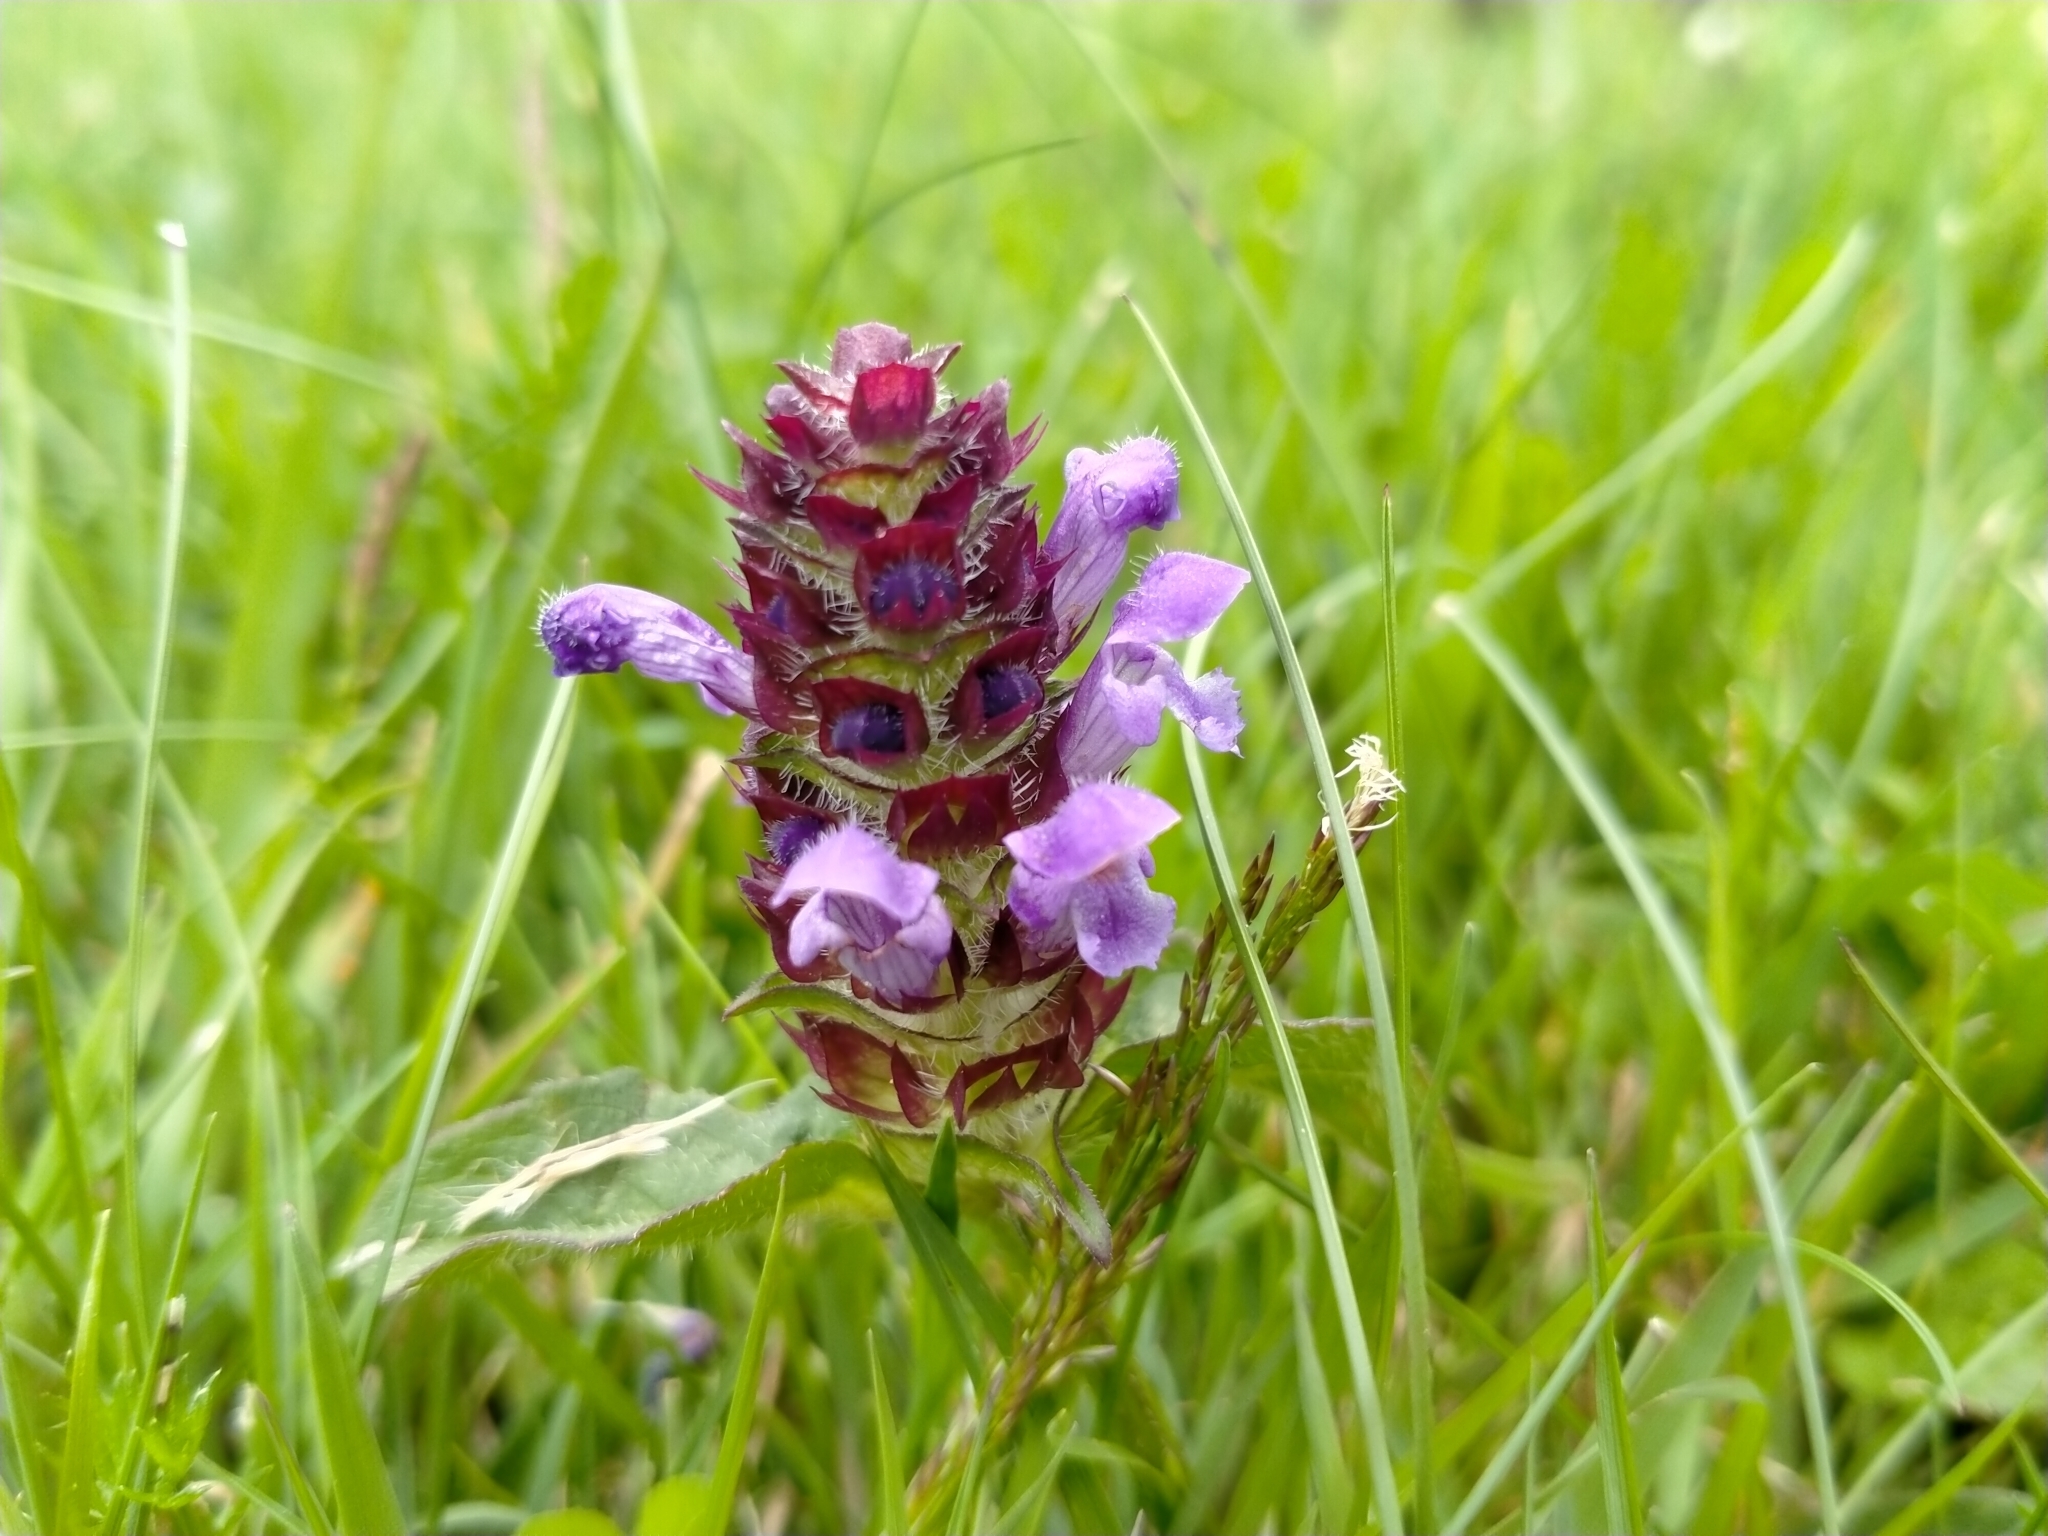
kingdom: Plantae
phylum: Tracheophyta
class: Magnoliopsida
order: Lamiales
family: Lamiaceae
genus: Prunella
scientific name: Prunella vulgaris
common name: Heal-all
